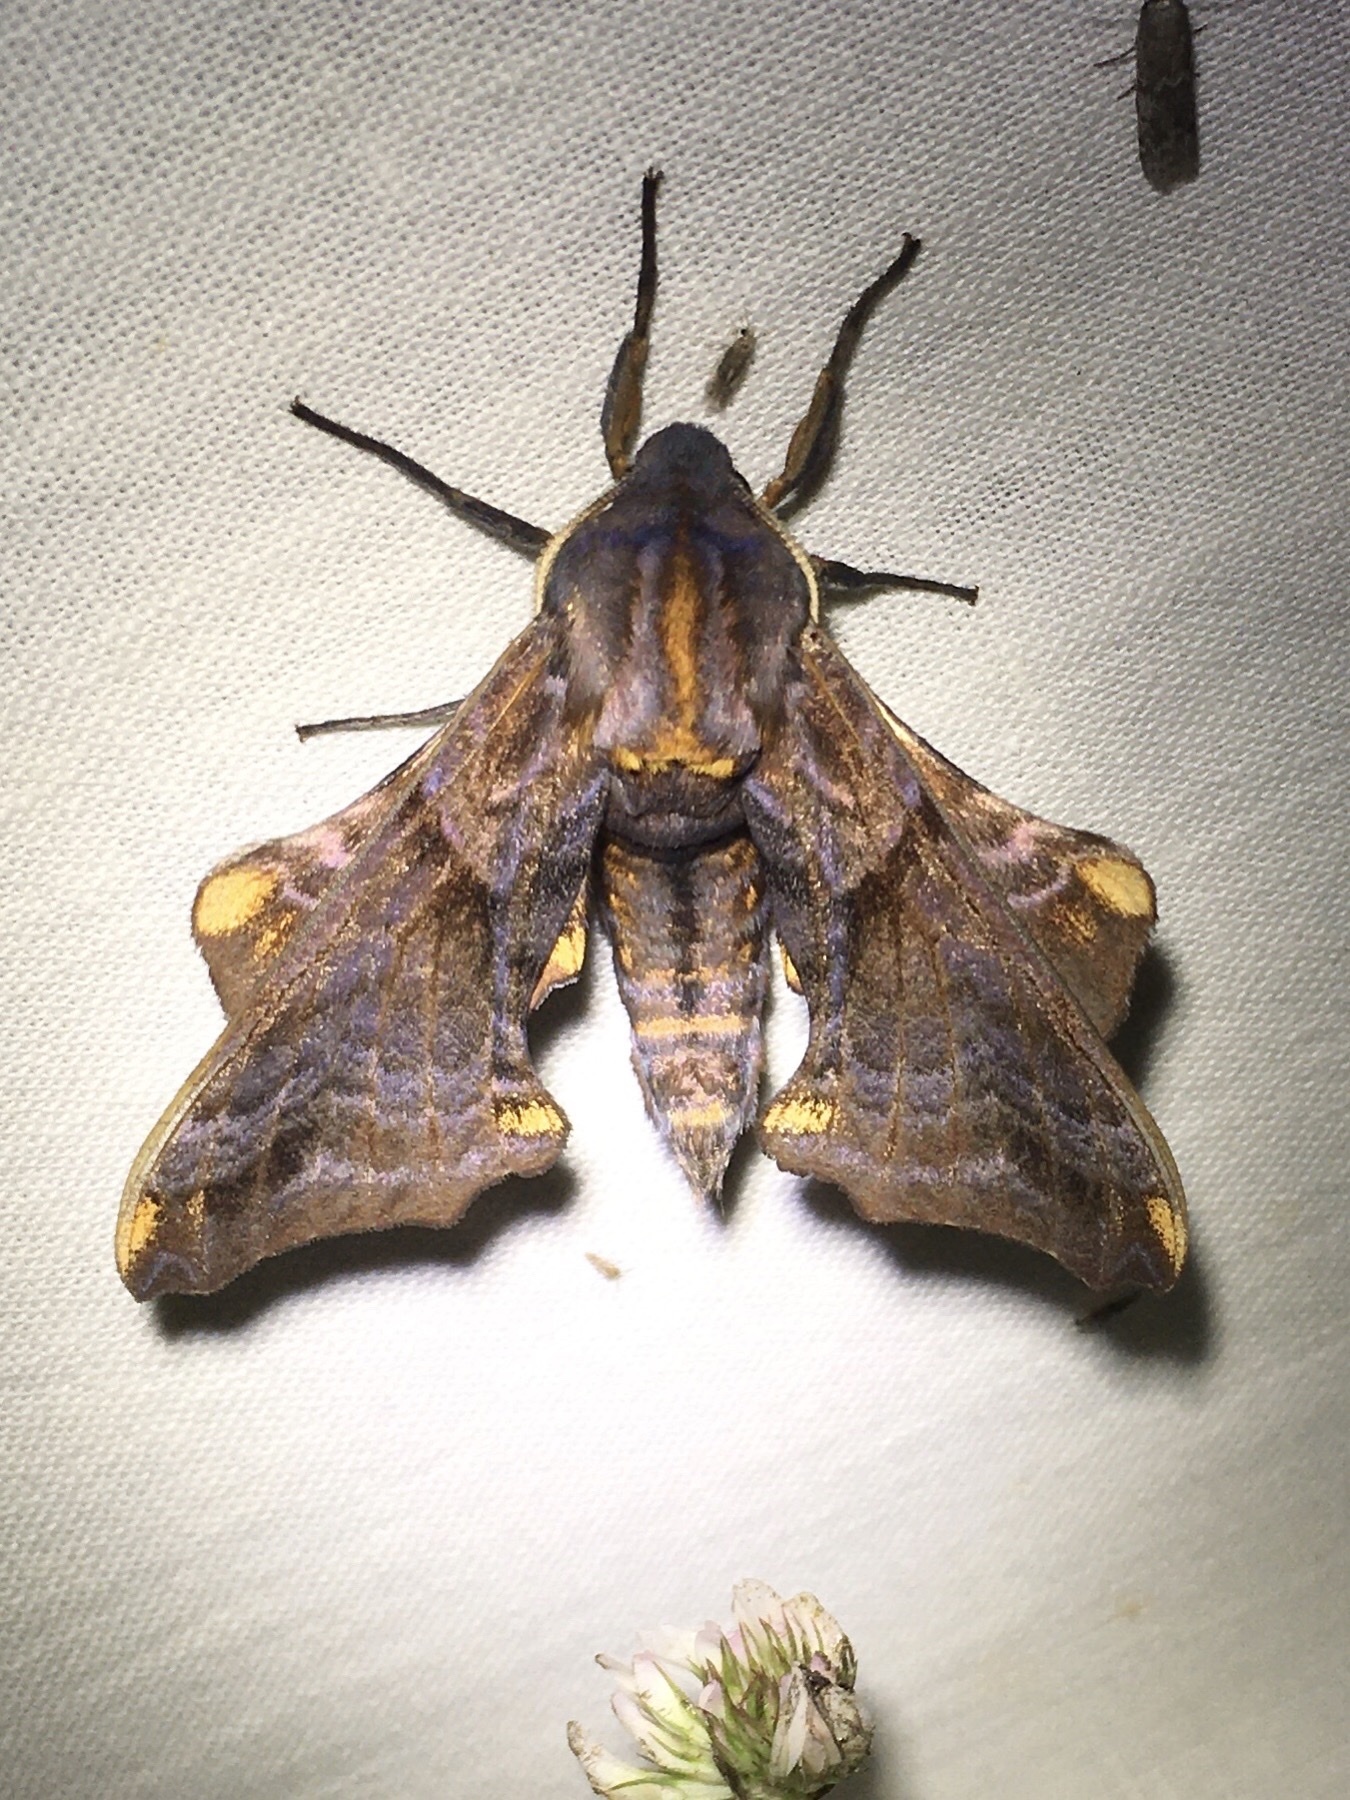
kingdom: Animalia
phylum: Arthropoda
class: Insecta
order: Lepidoptera
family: Sphingidae
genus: Paonias
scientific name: Paonias myops
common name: Small-eyed sphinx
